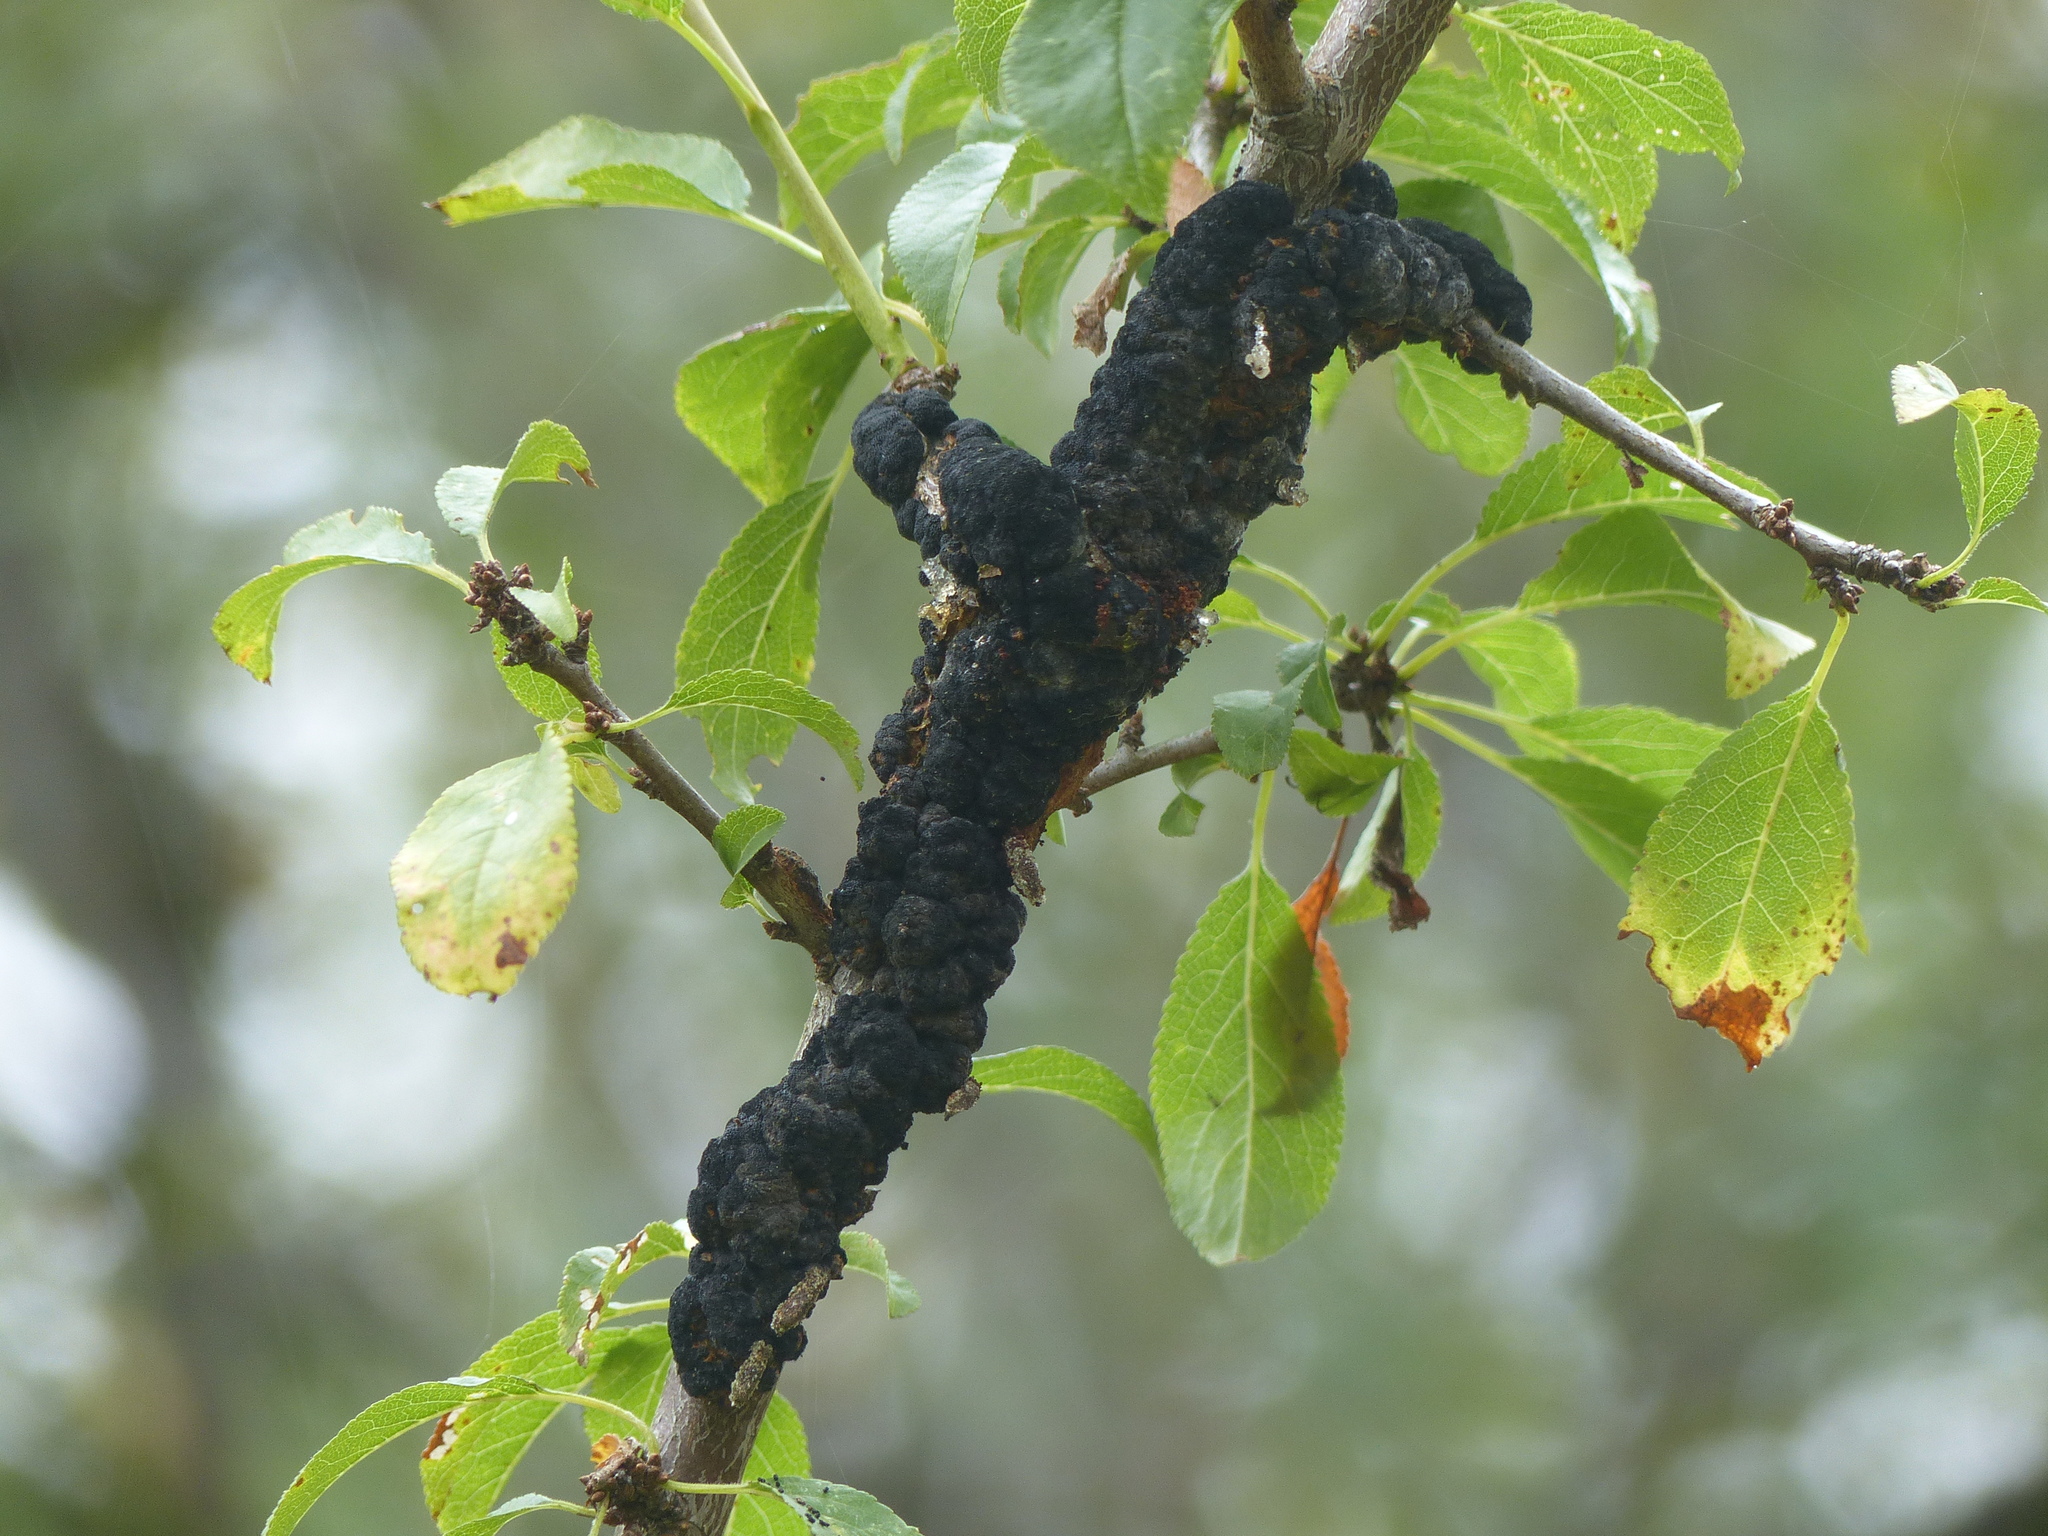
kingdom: Fungi
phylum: Ascomycota
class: Dothideomycetes
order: Venturiales
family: Venturiaceae
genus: Apiosporina
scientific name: Apiosporina morbosa
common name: Black knot
